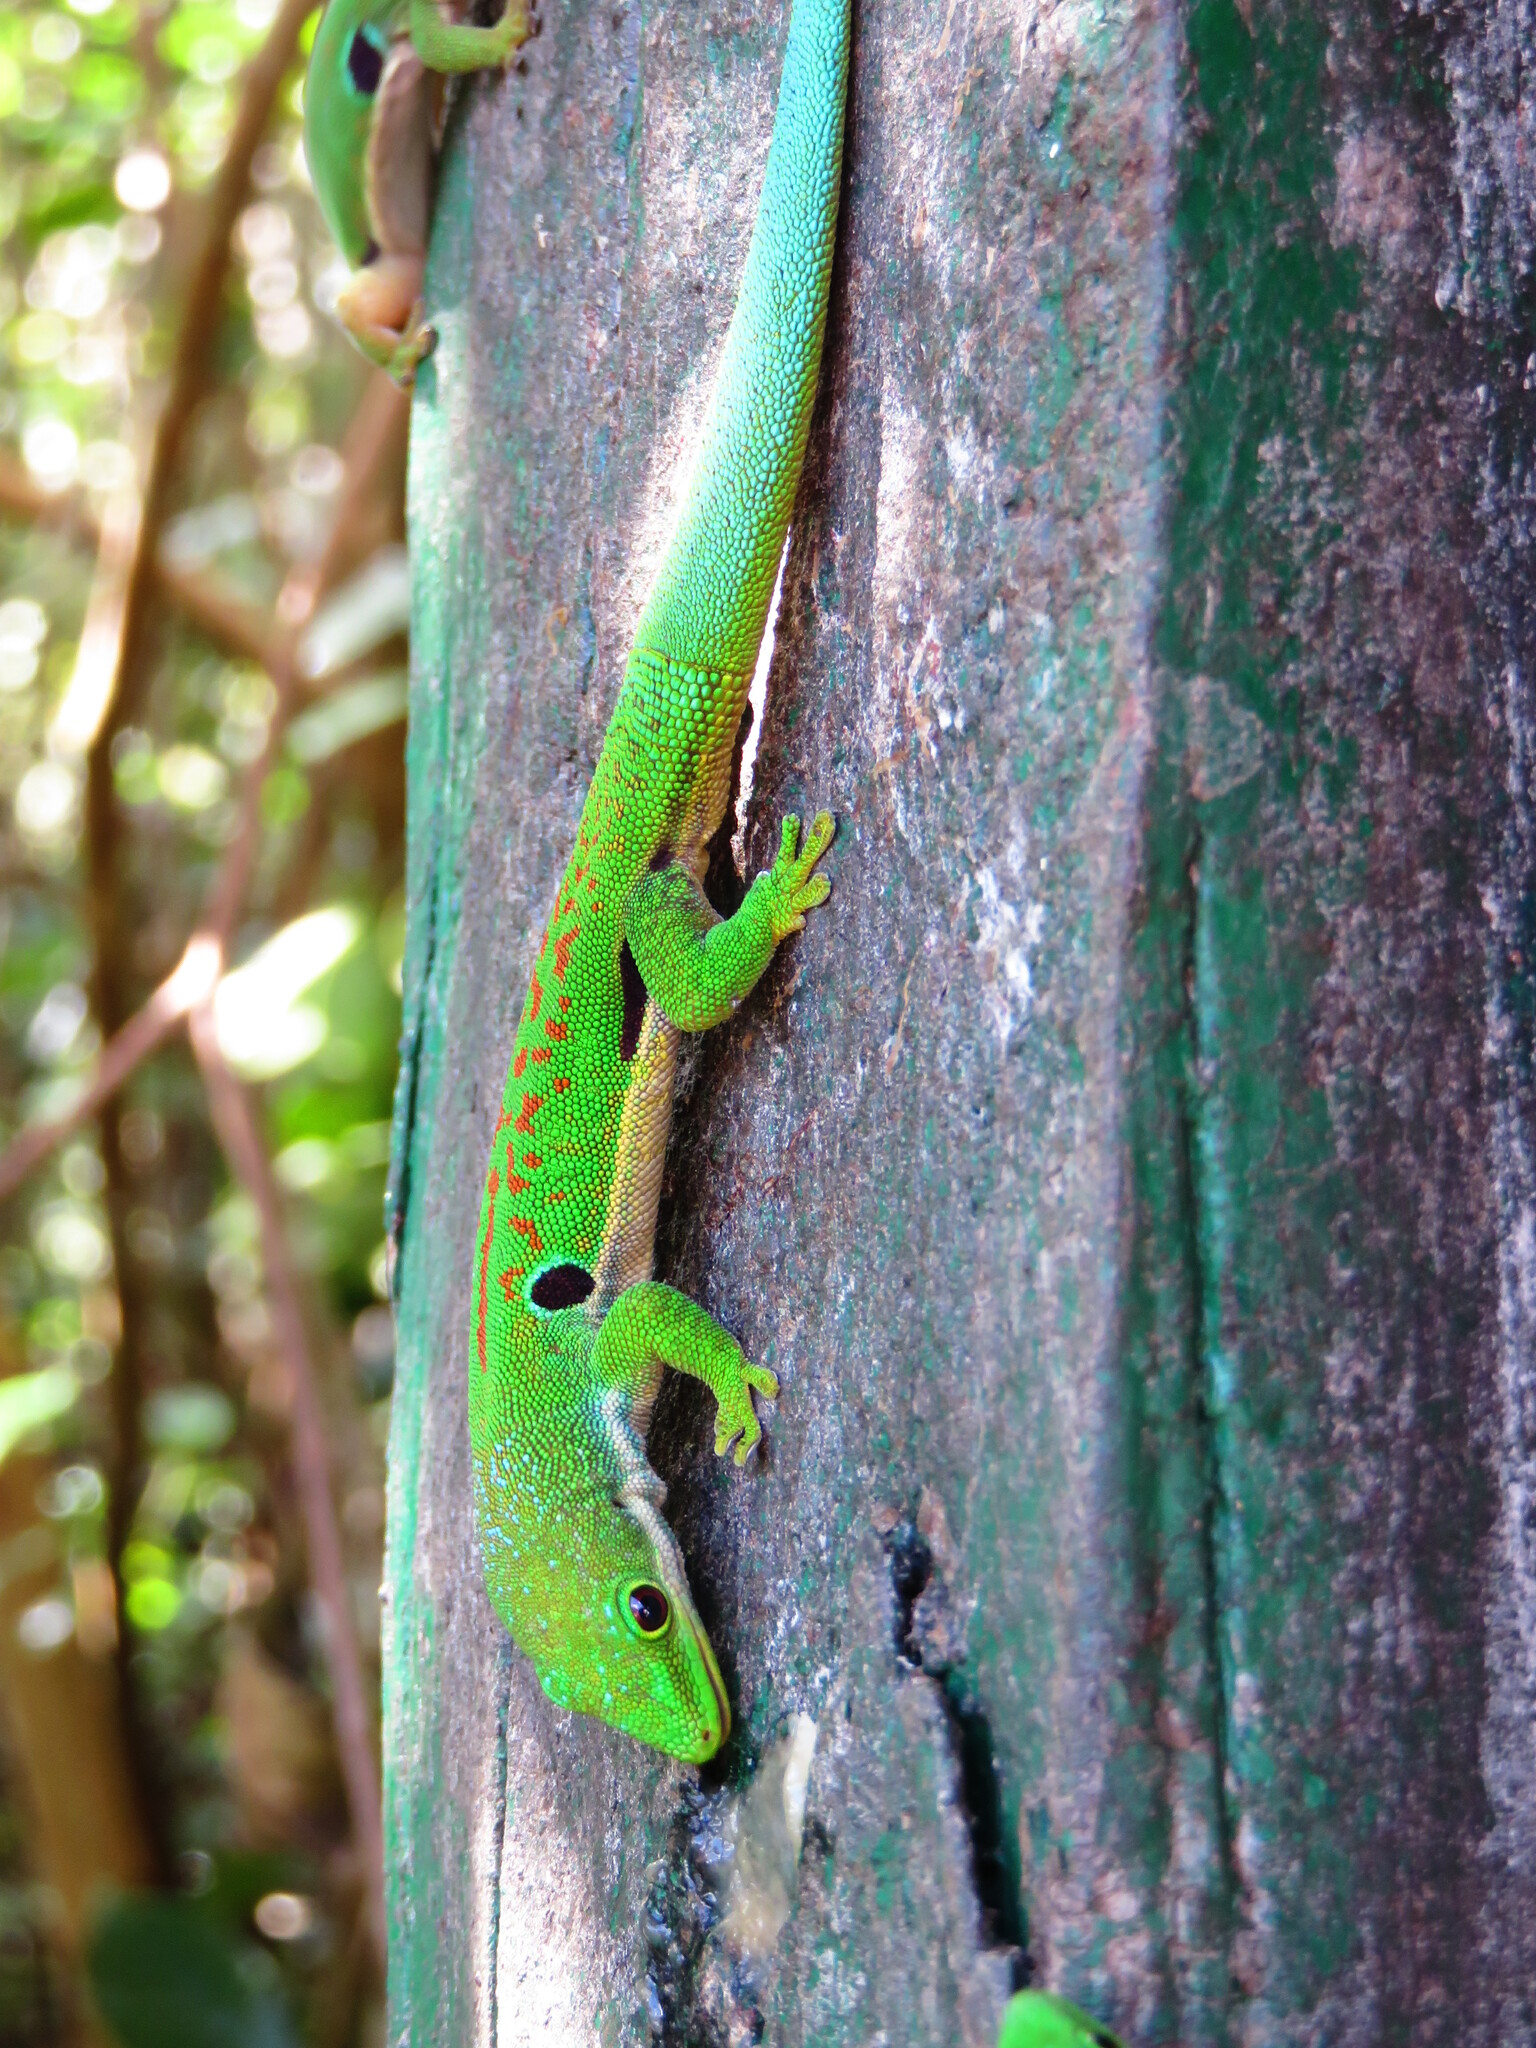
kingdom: Animalia
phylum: Chordata
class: Squamata
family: Gekkonidae
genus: Phelsuma
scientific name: Phelsuma quadriocellata
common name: Peacock day gecko
